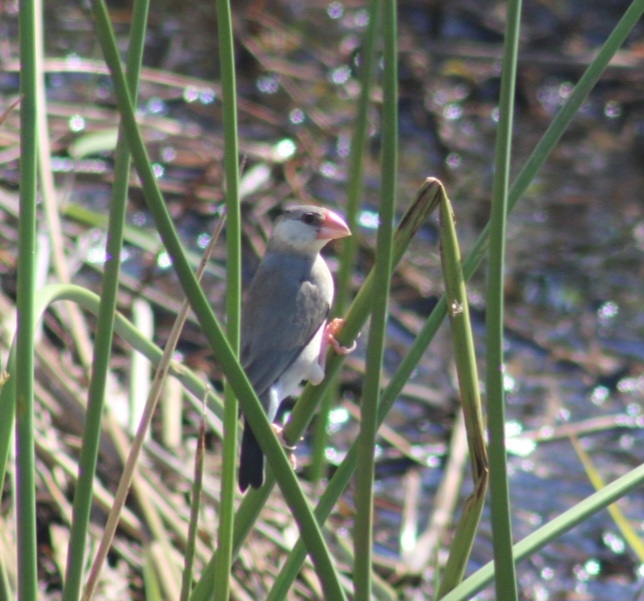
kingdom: Animalia
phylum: Chordata
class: Aves
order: Passeriformes
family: Estrildidae
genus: Lonchura
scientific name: Lonchura oryzivora
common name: Java sparrow
